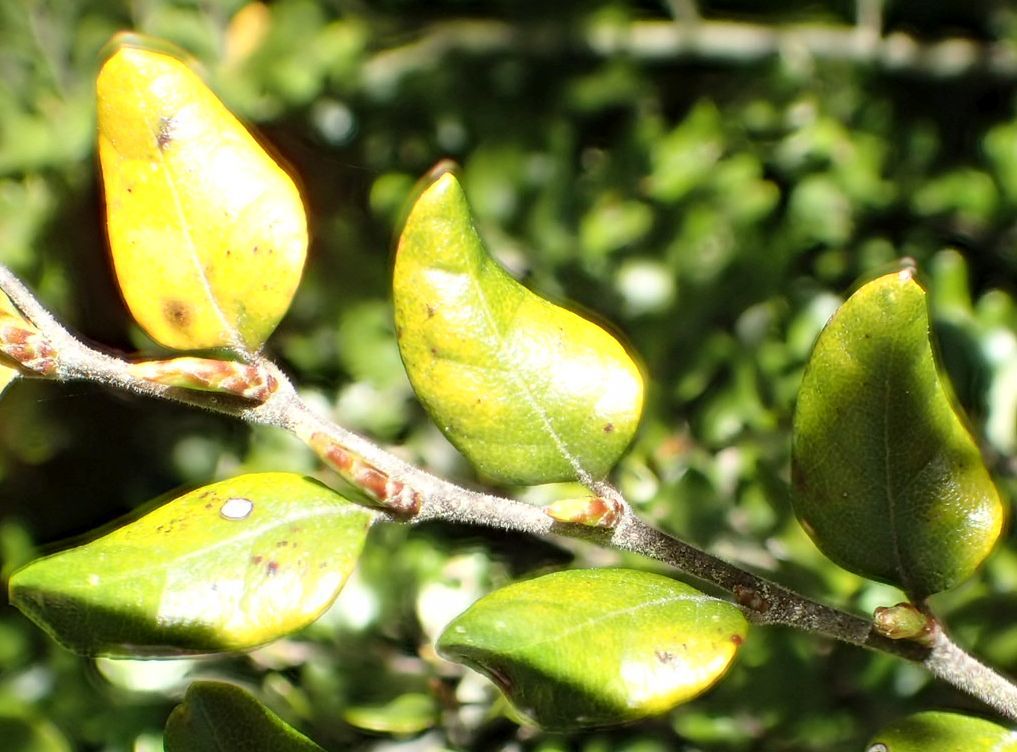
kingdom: Plantae
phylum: Tracheophyta
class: Magnoliopsida
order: Fagales
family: Nothofagaceae
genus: Nothofagus
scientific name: Nothofagus cliffortioides
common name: Mountain beech
